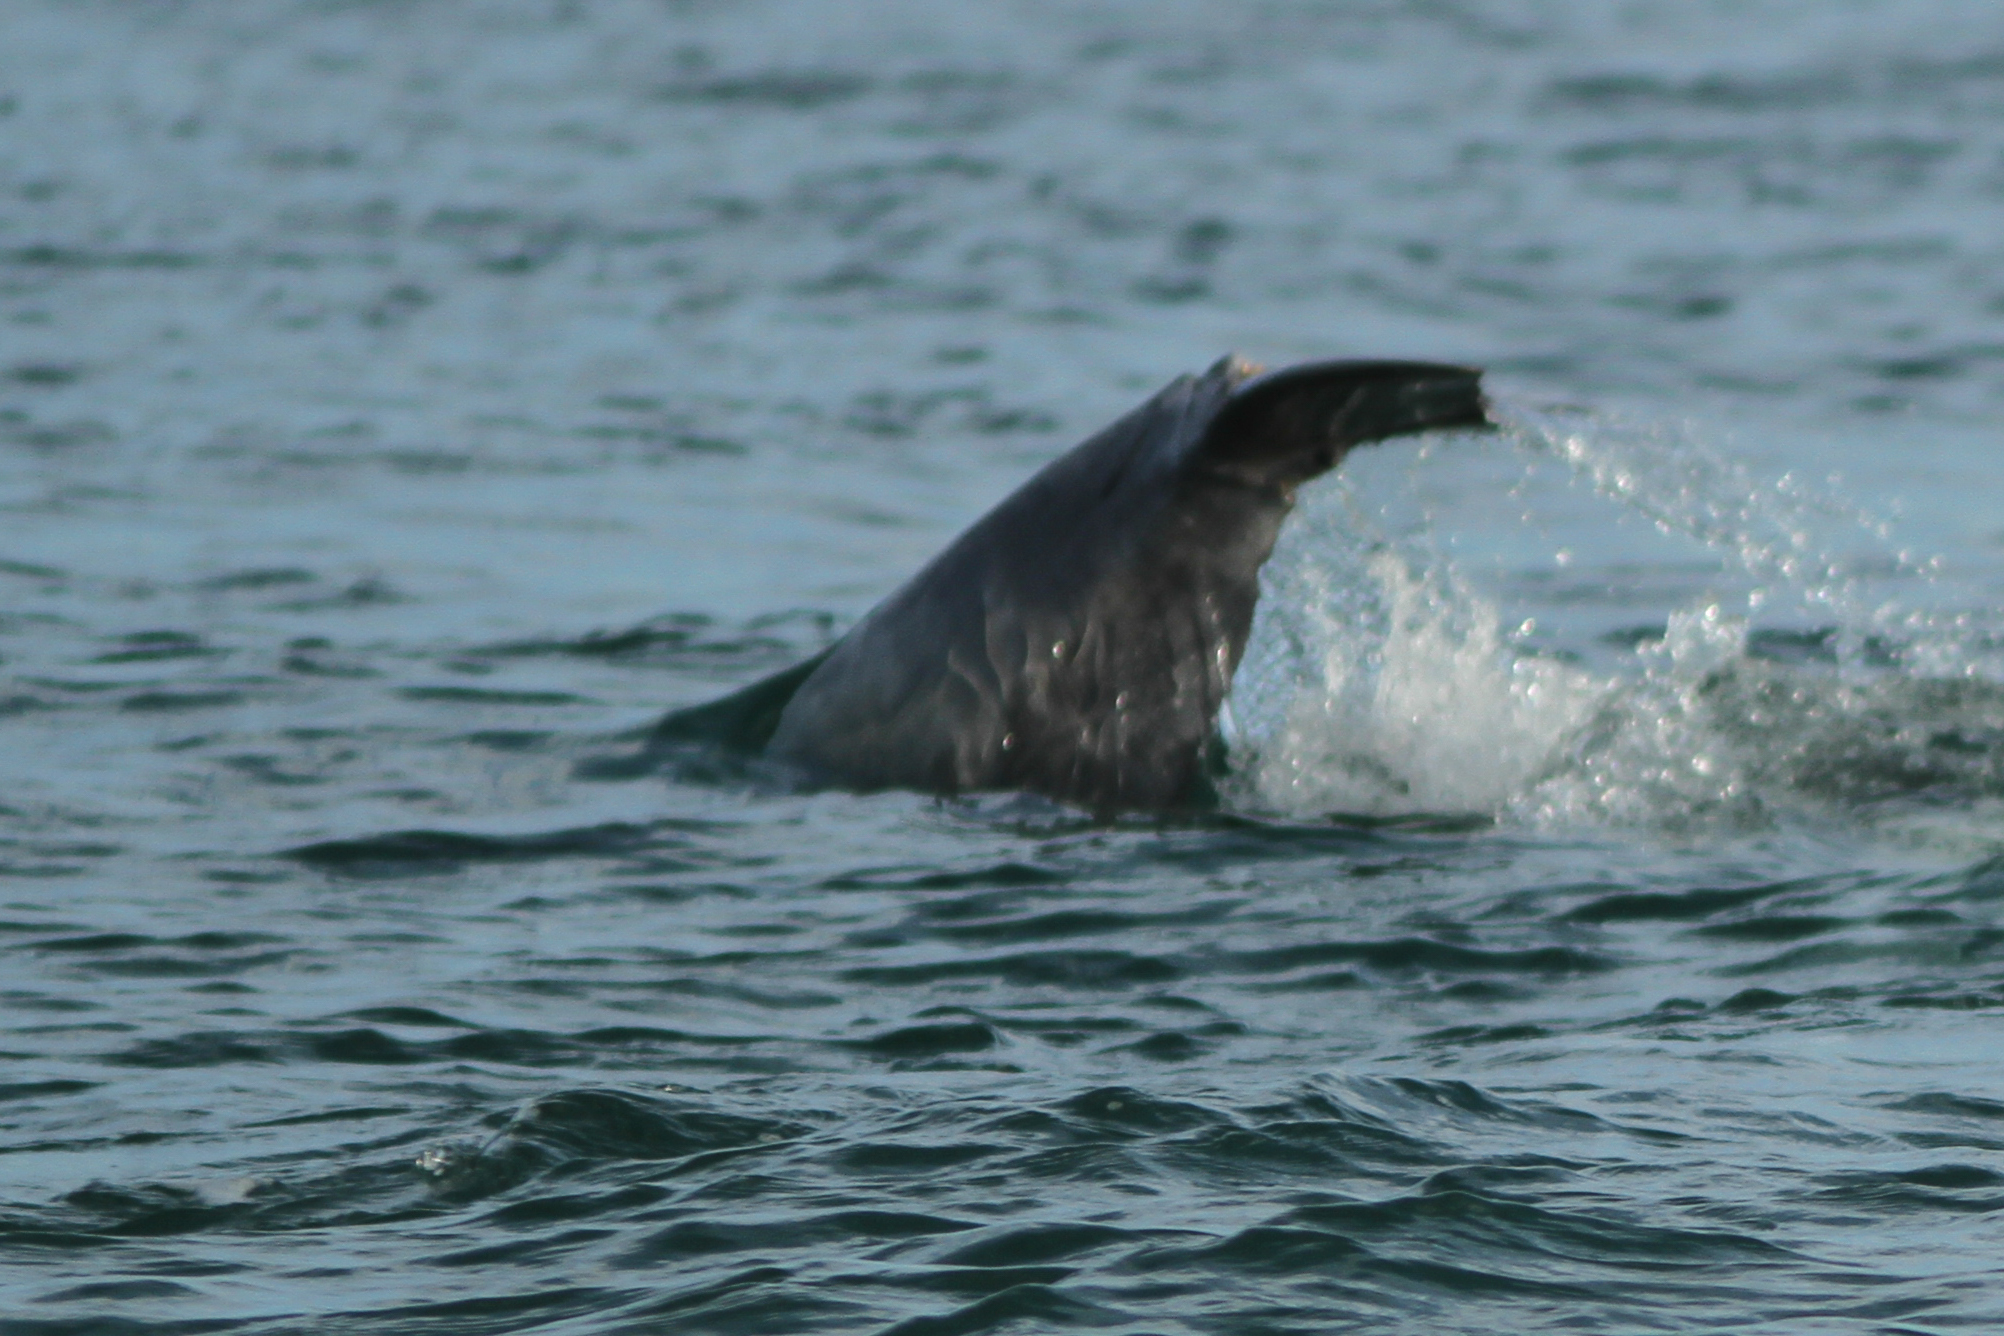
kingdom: Animalia
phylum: Chordata
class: Mammalia
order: Cetacea
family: Delphinidae
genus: Sousa
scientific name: Sousa sahulensis
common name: Australian humpback dolphin
